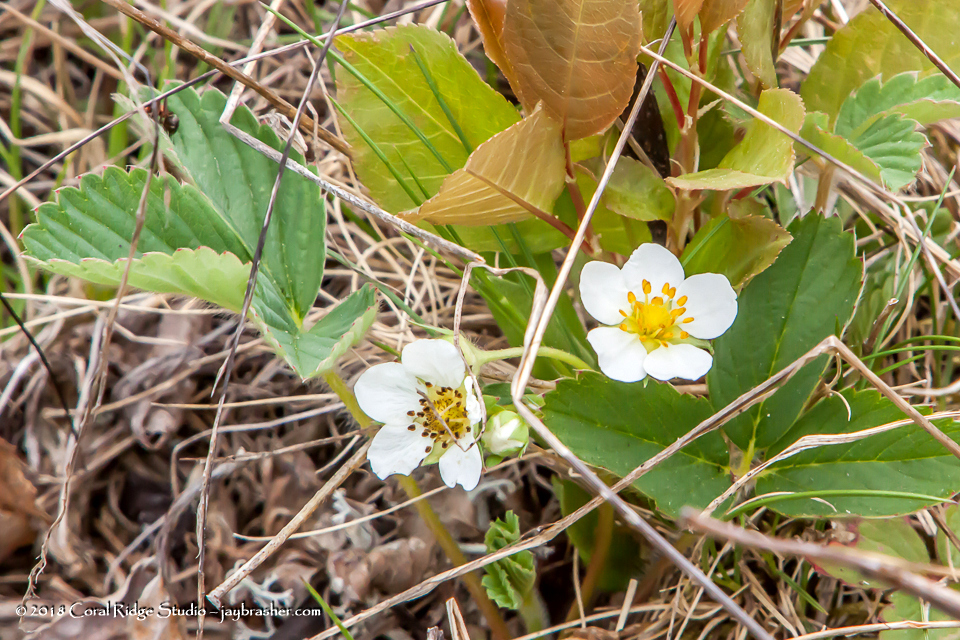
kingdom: Plantae
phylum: Tracheophyta
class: Magnoliopsida
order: Rosales
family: Rosaceae
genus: Fragaria
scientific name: Fragaria virginiana
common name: Thickleaved wild strawberry
